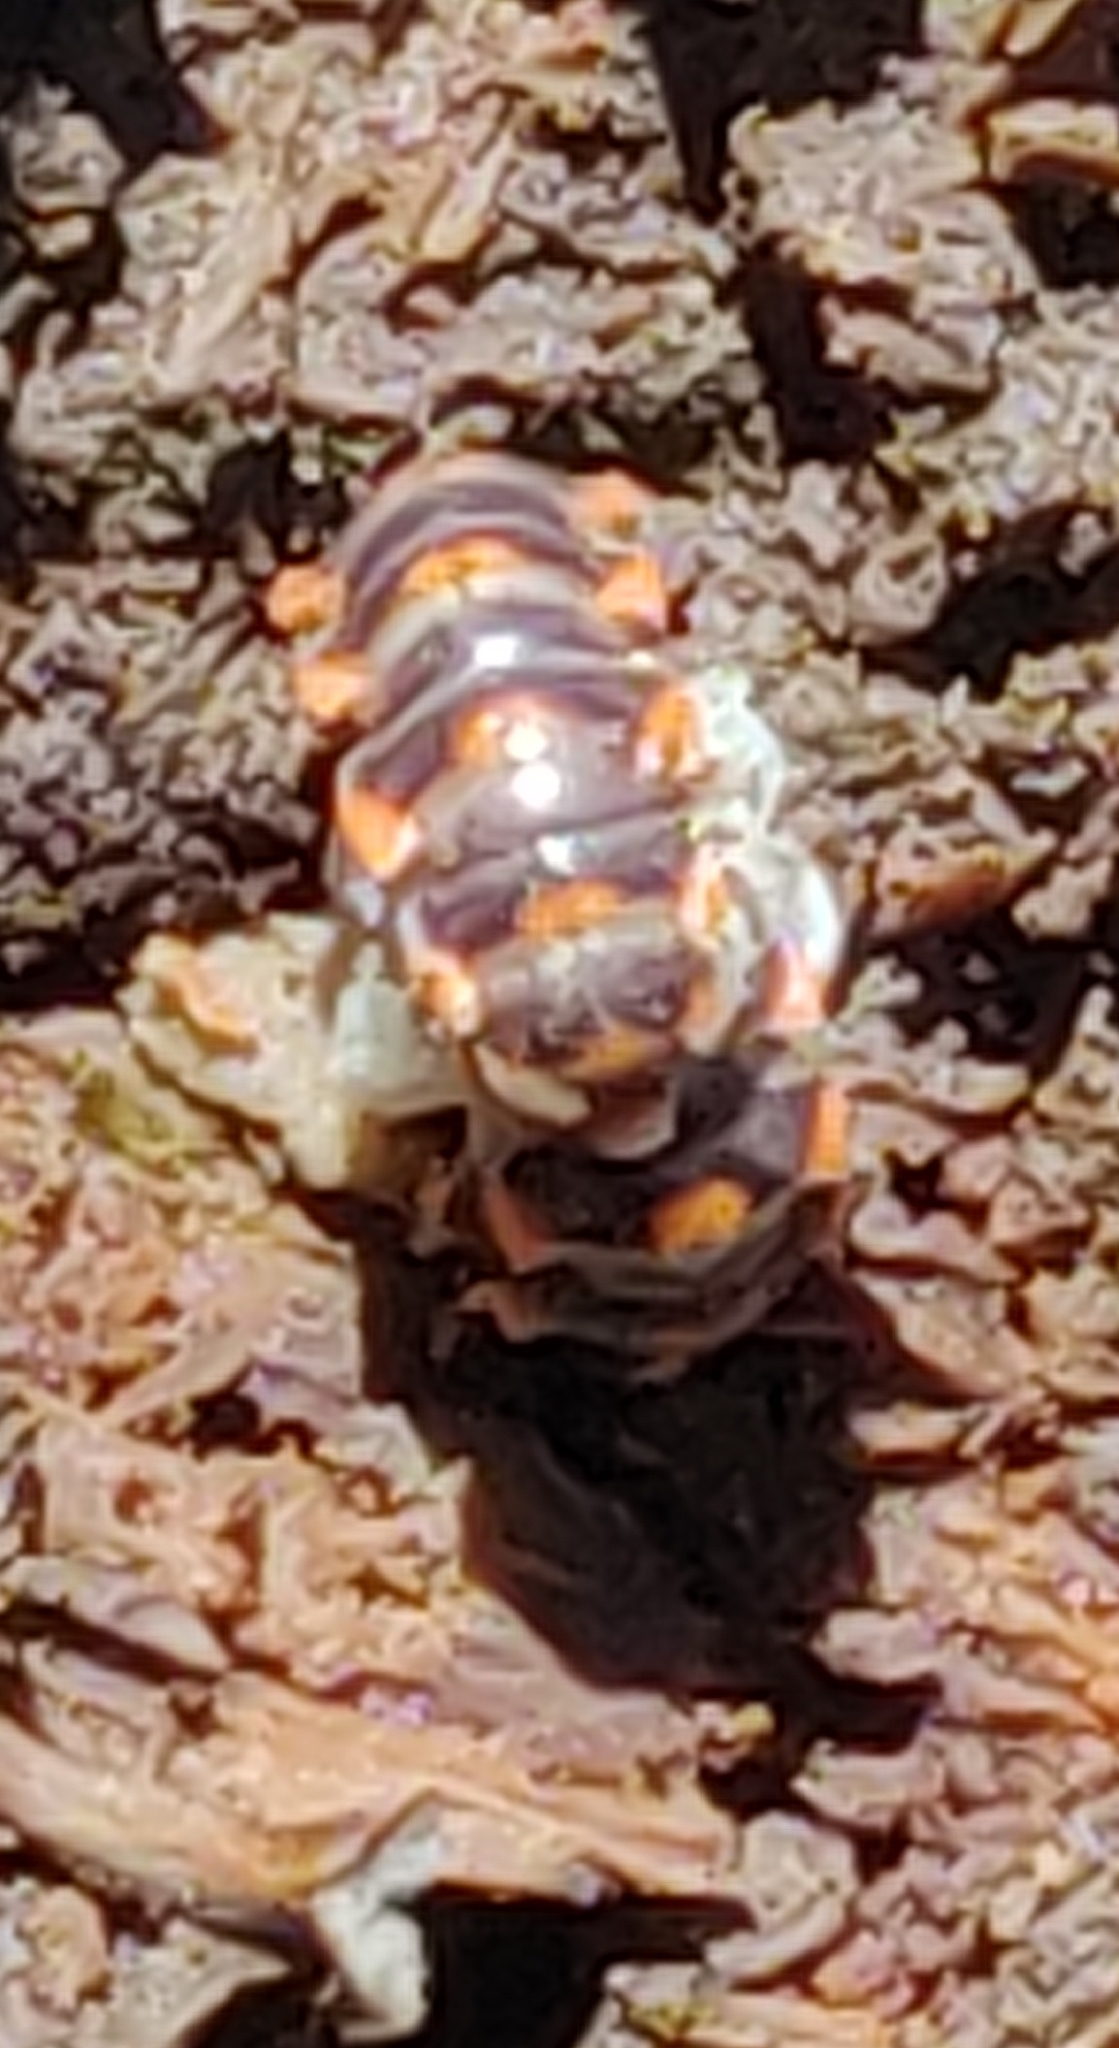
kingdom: Animalia
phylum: Arthropoda
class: Diplopoda
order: Polydesmida
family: Xystodesmidae
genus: Euryurus
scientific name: Euryurus leachii
